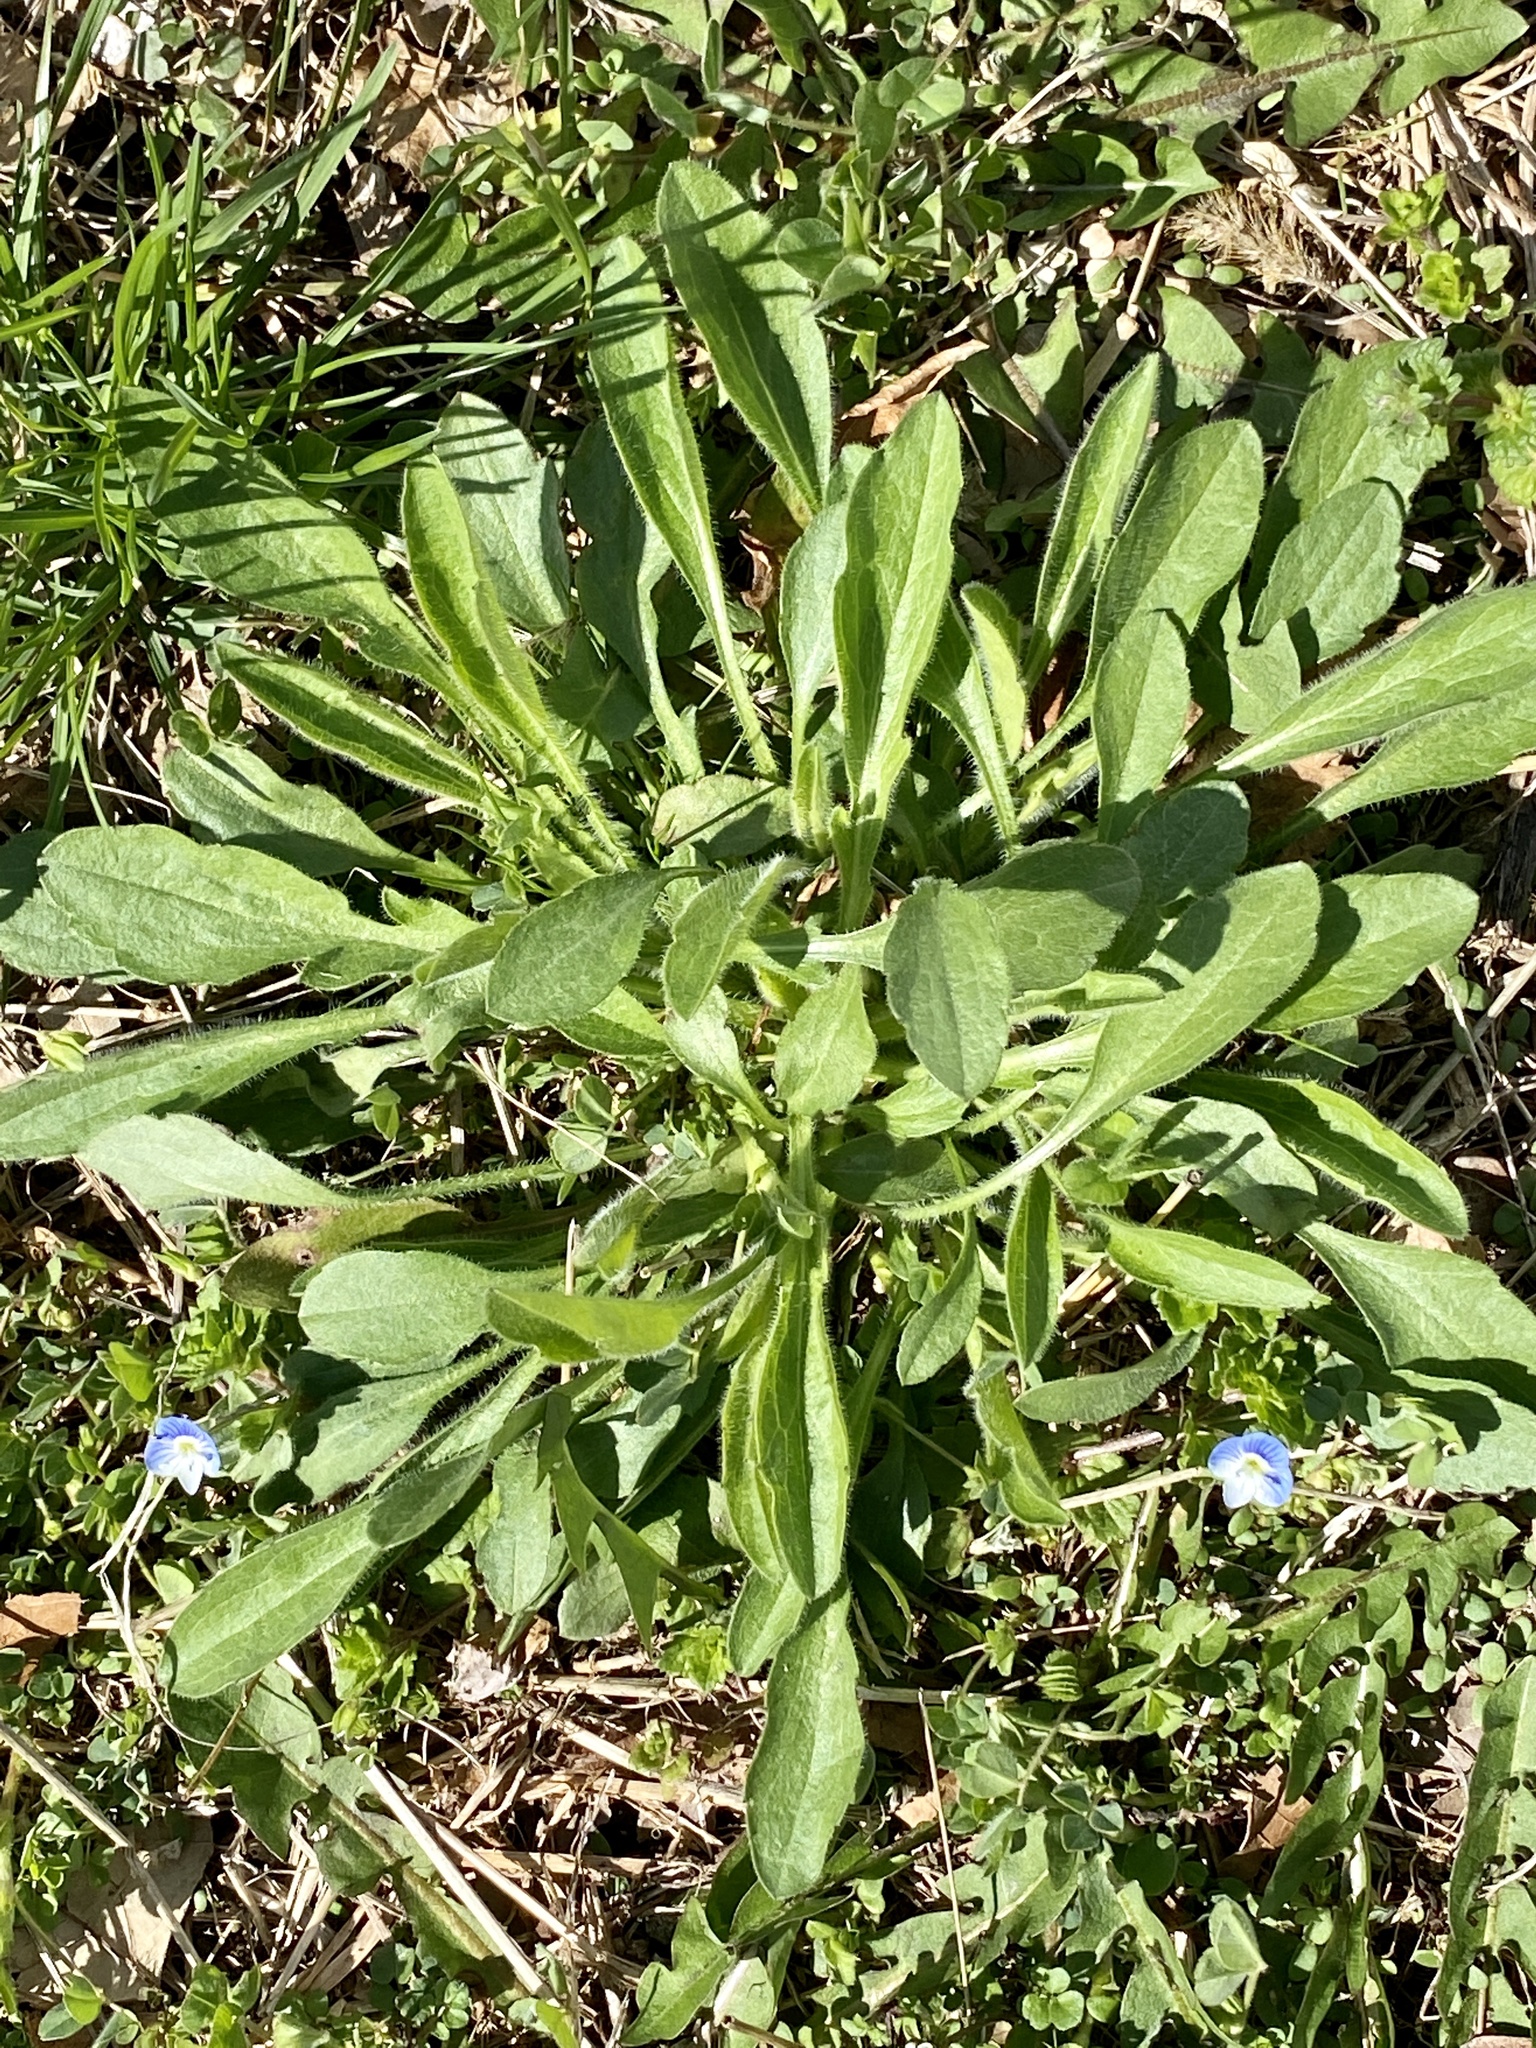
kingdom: Plantae
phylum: Tracheophyta
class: Magnoliopsida
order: Asterales
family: Asteraceae
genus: Erigeron
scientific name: Erigeron canadensis
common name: Canadian fleabane
